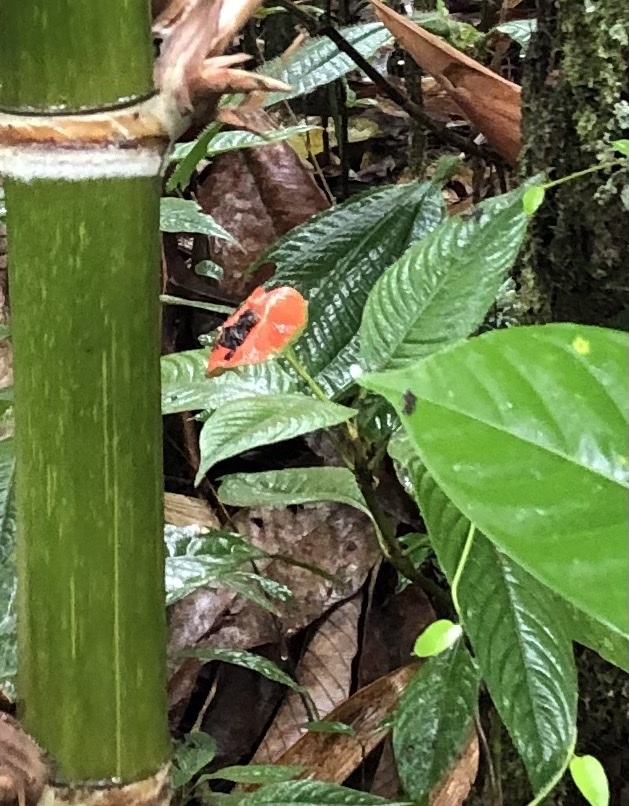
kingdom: Plantae
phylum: Tracheophyta
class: Magnoliopsida
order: Gentianales
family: Rubiaceae
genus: Palicourea
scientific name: Palicourea tomentosa
